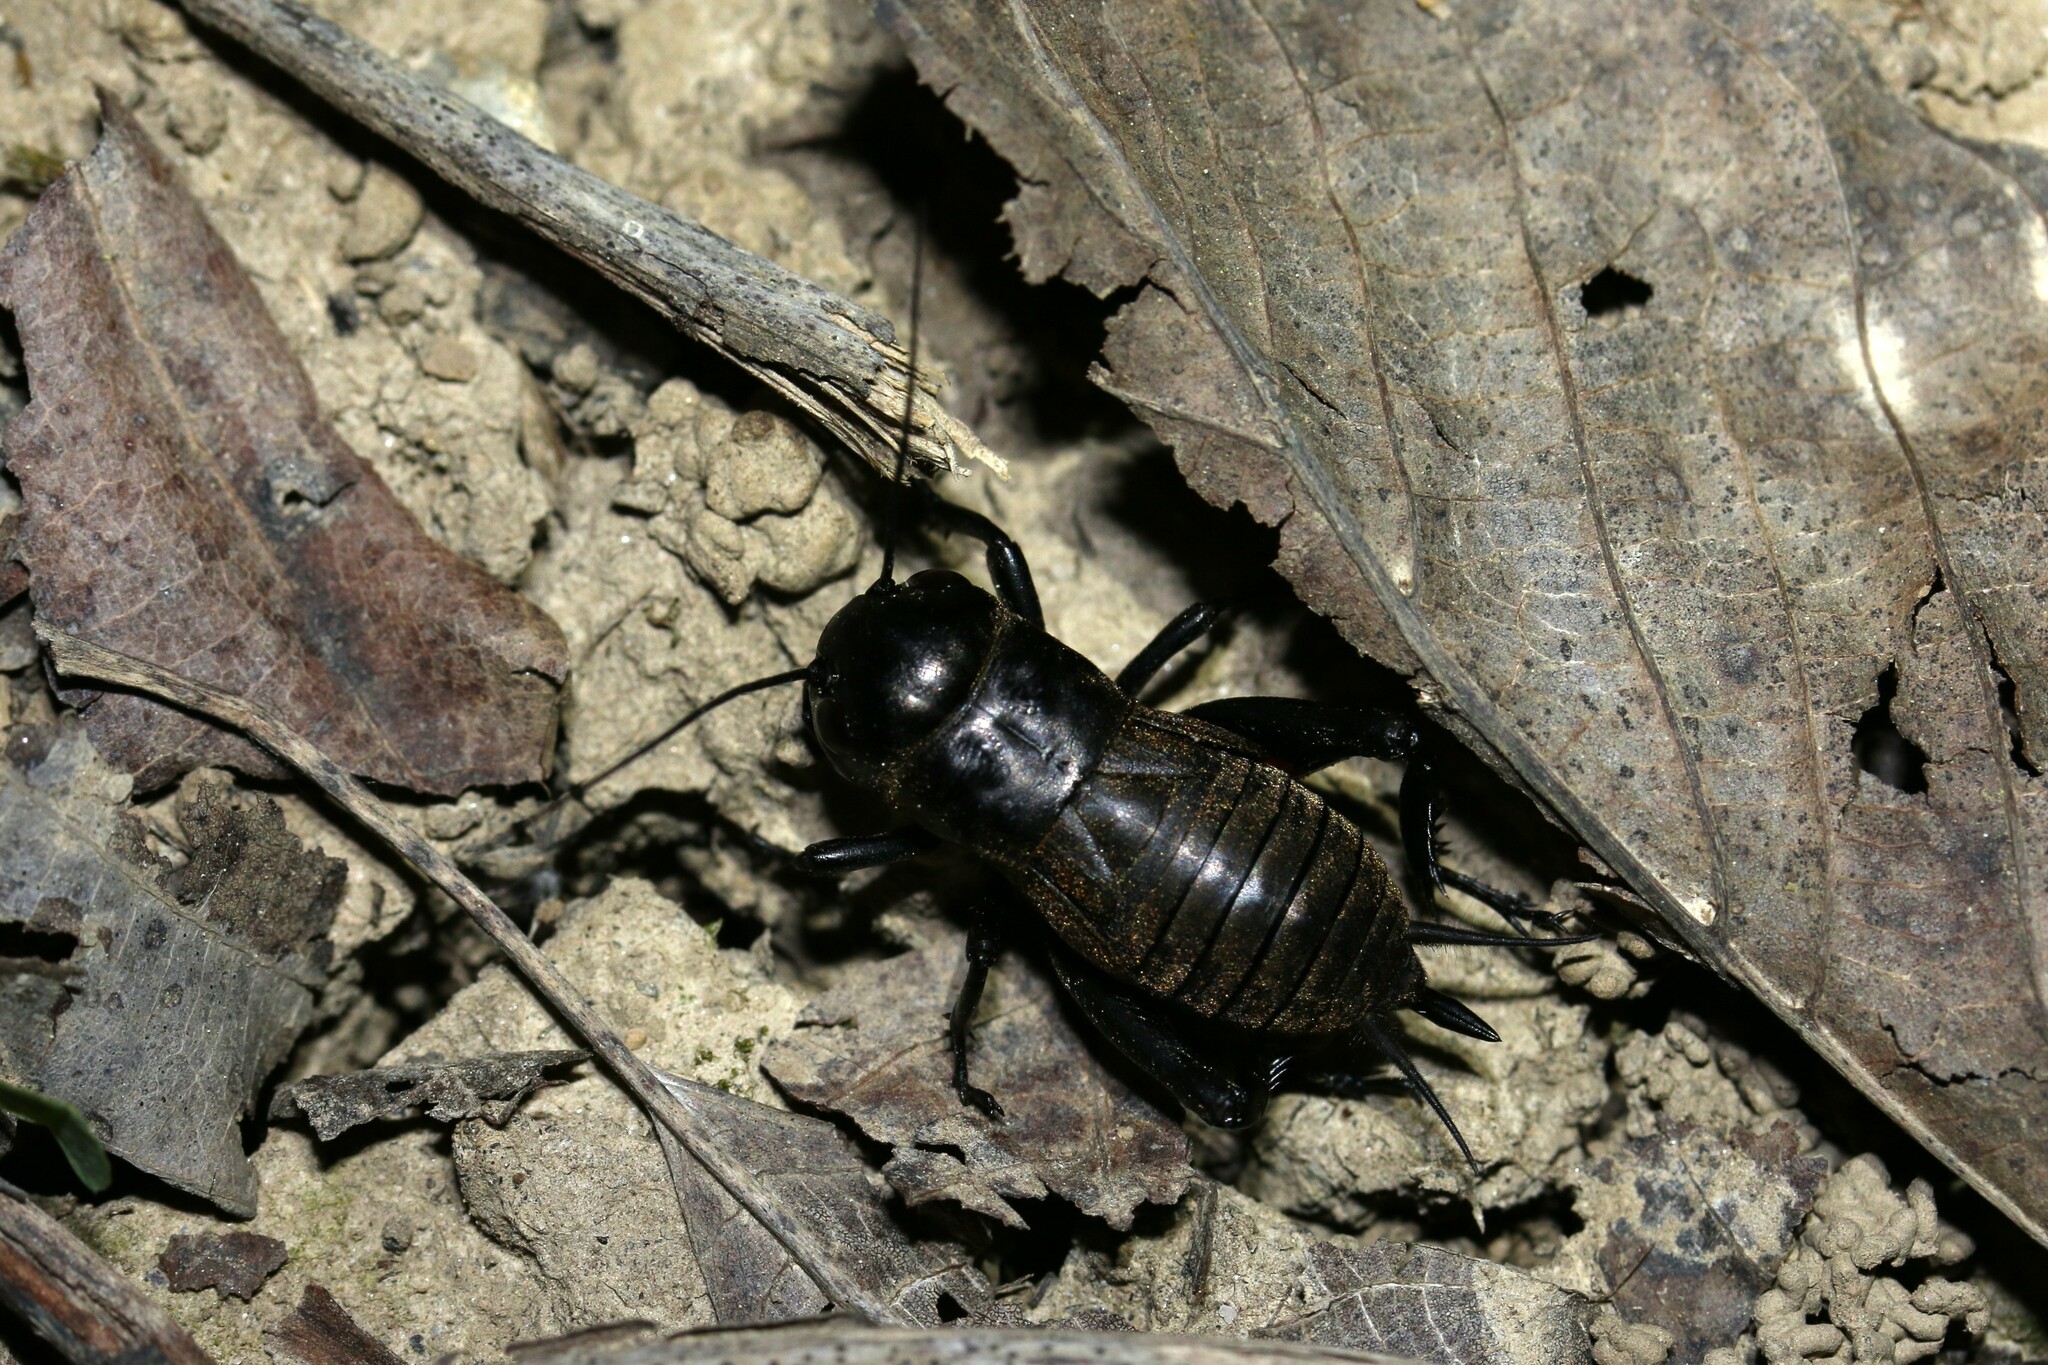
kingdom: Animalia
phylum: Arthropoda
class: Insecta
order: Orthoptera
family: Gryllidae
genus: Gryllus
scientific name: Gryllus campestris
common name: Field cricket
